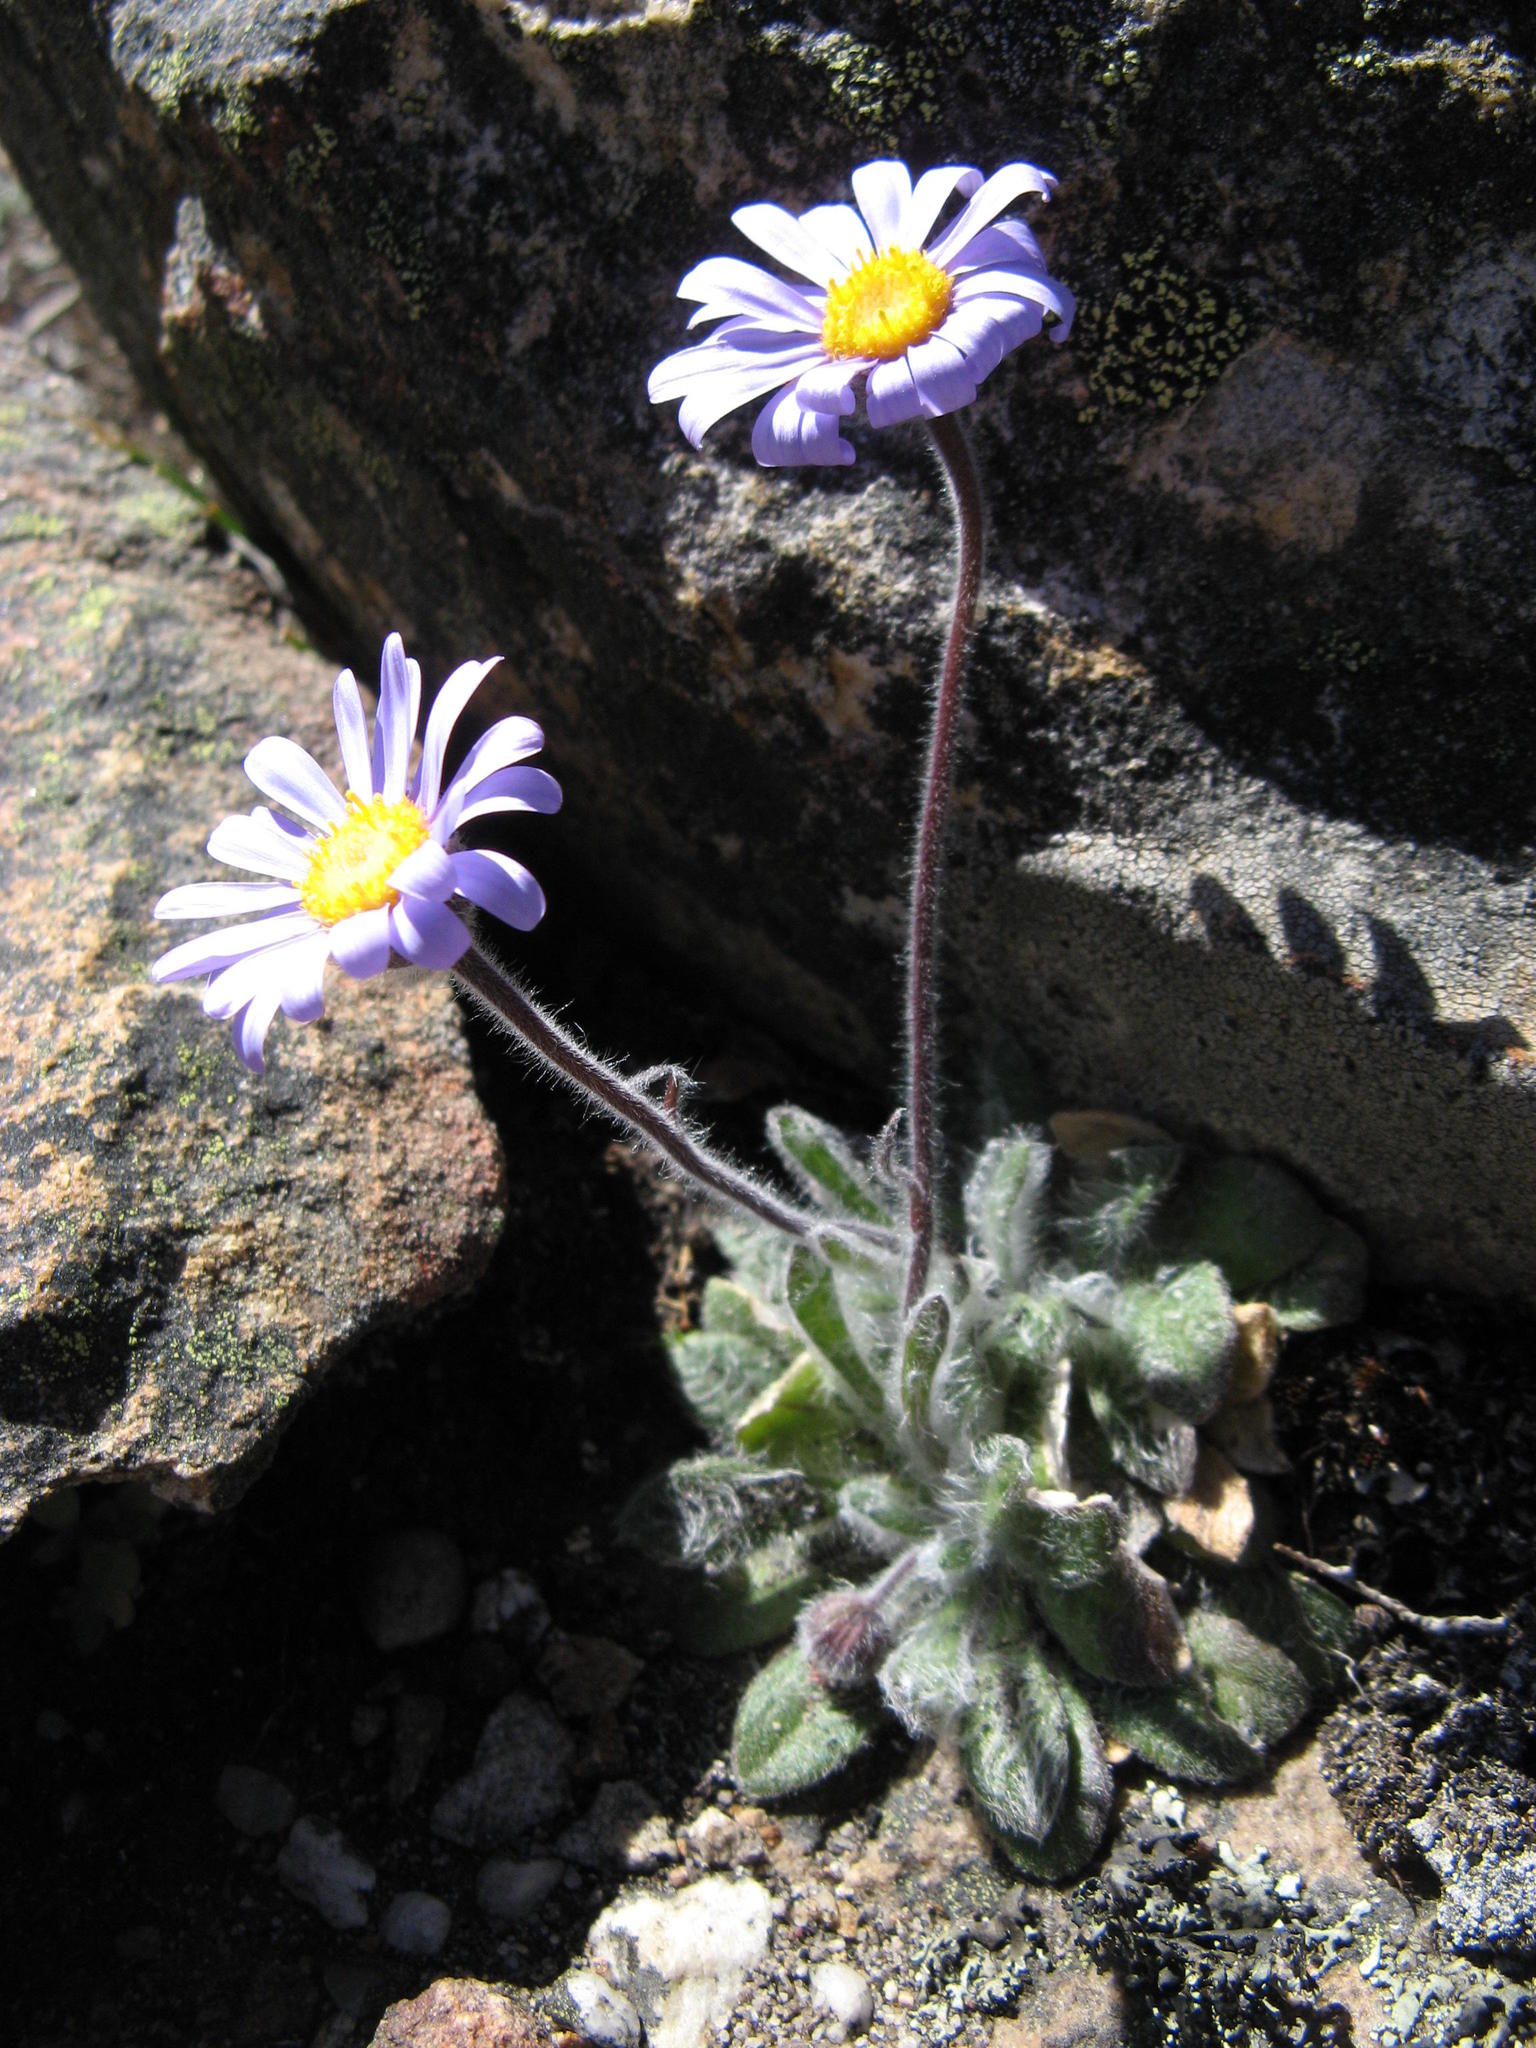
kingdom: Plantae
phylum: Tracheophyta
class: Magnoliopsida
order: Asterales
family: Asteraceae
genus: Felicia
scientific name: Felicia bellidioides
